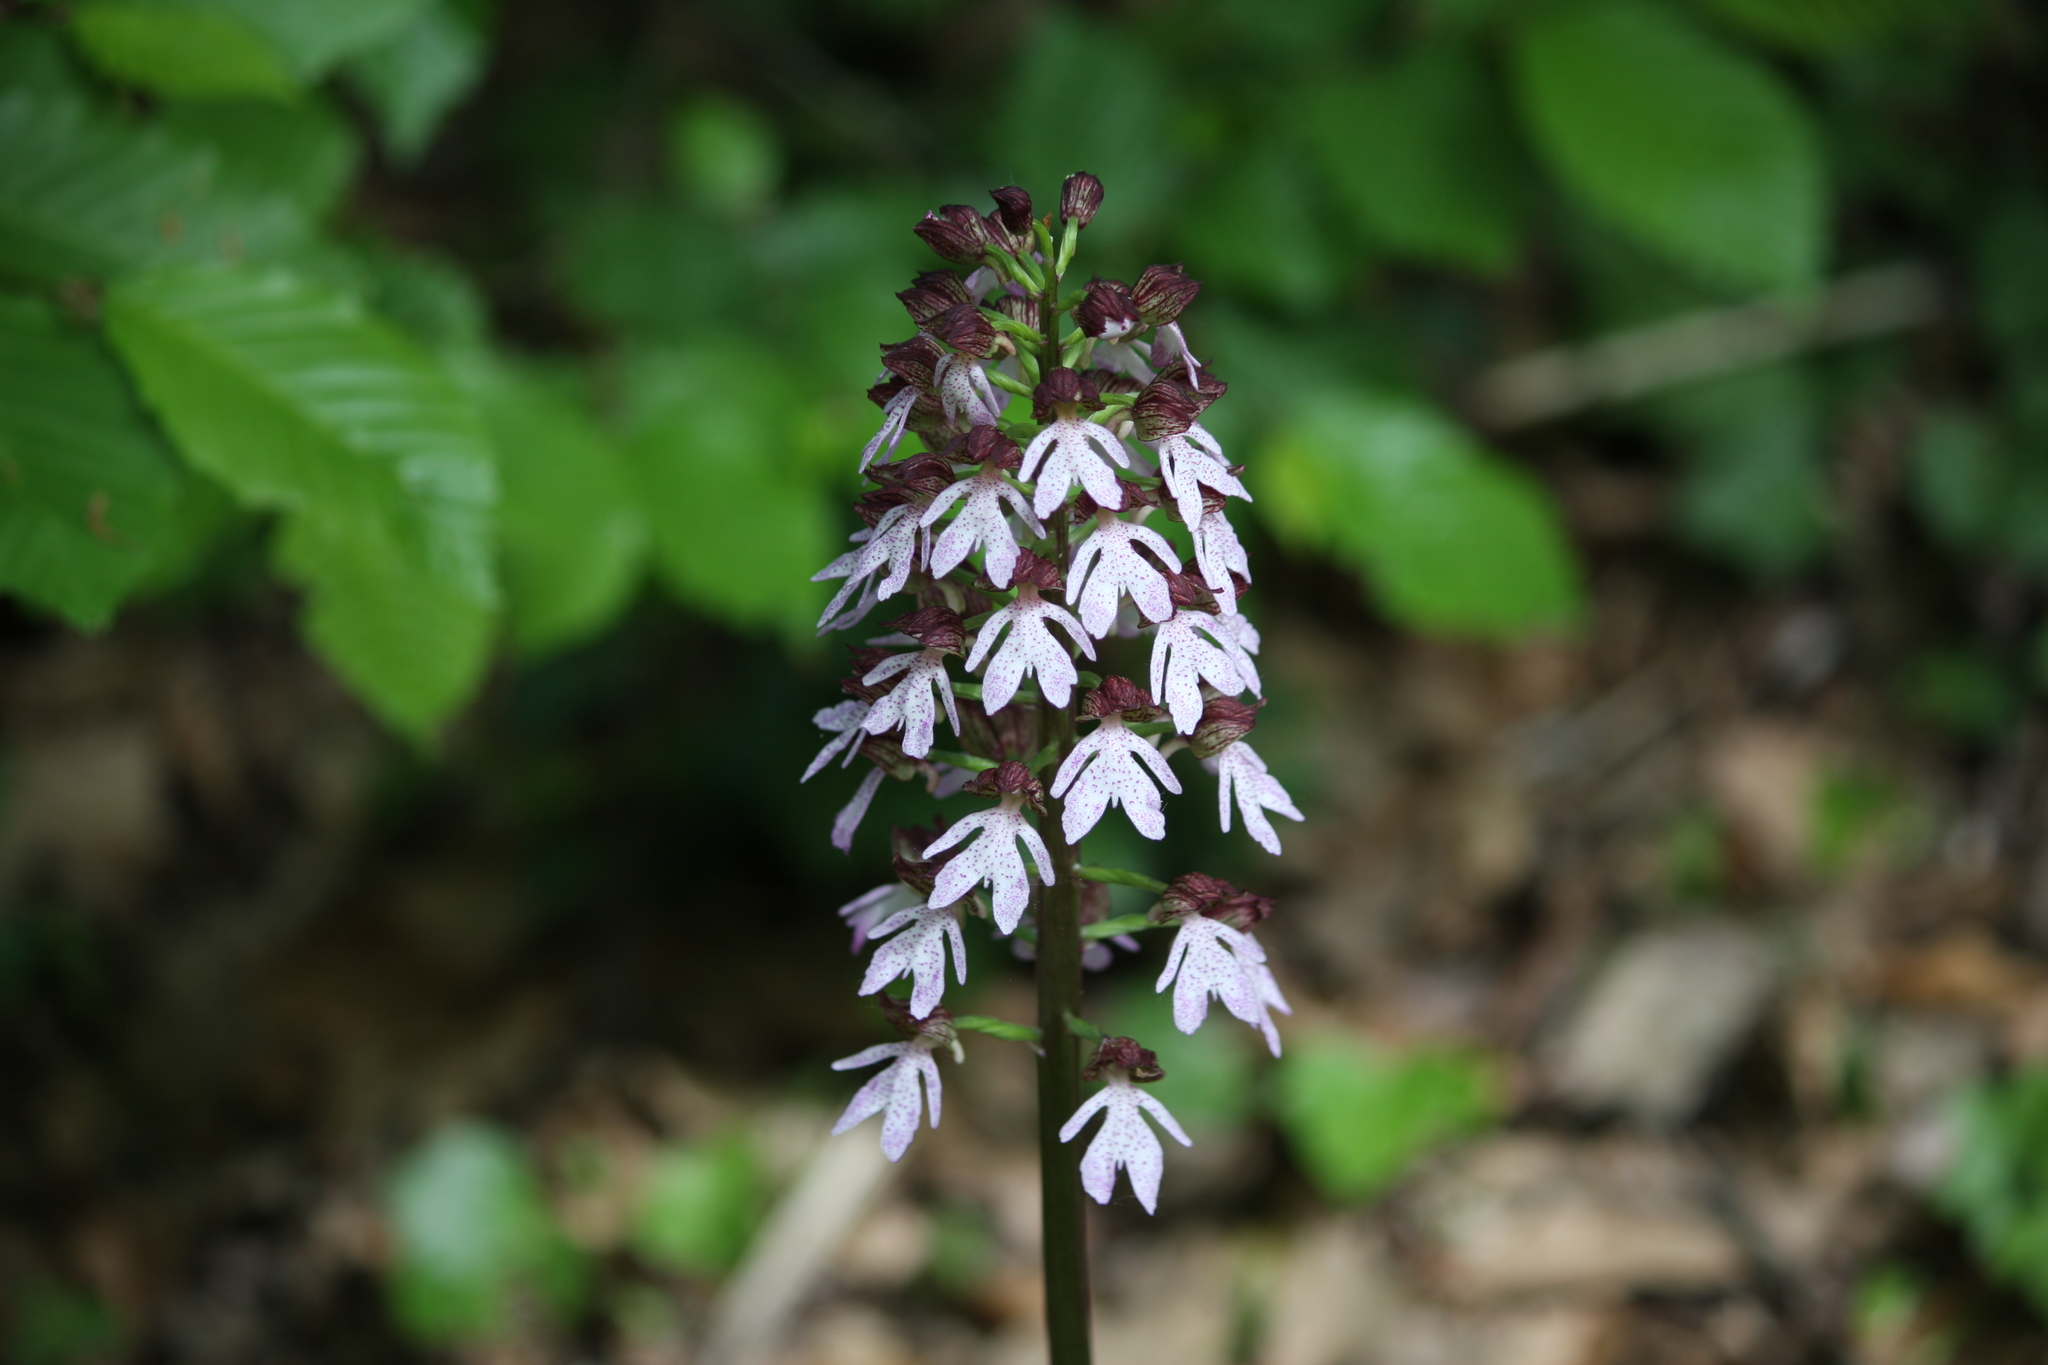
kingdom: Plantae
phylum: Tracheophyta
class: Liliopsida
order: Asparagales
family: Orchidaceae
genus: Orchis
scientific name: Orchis purpurea
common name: Lady orchid
